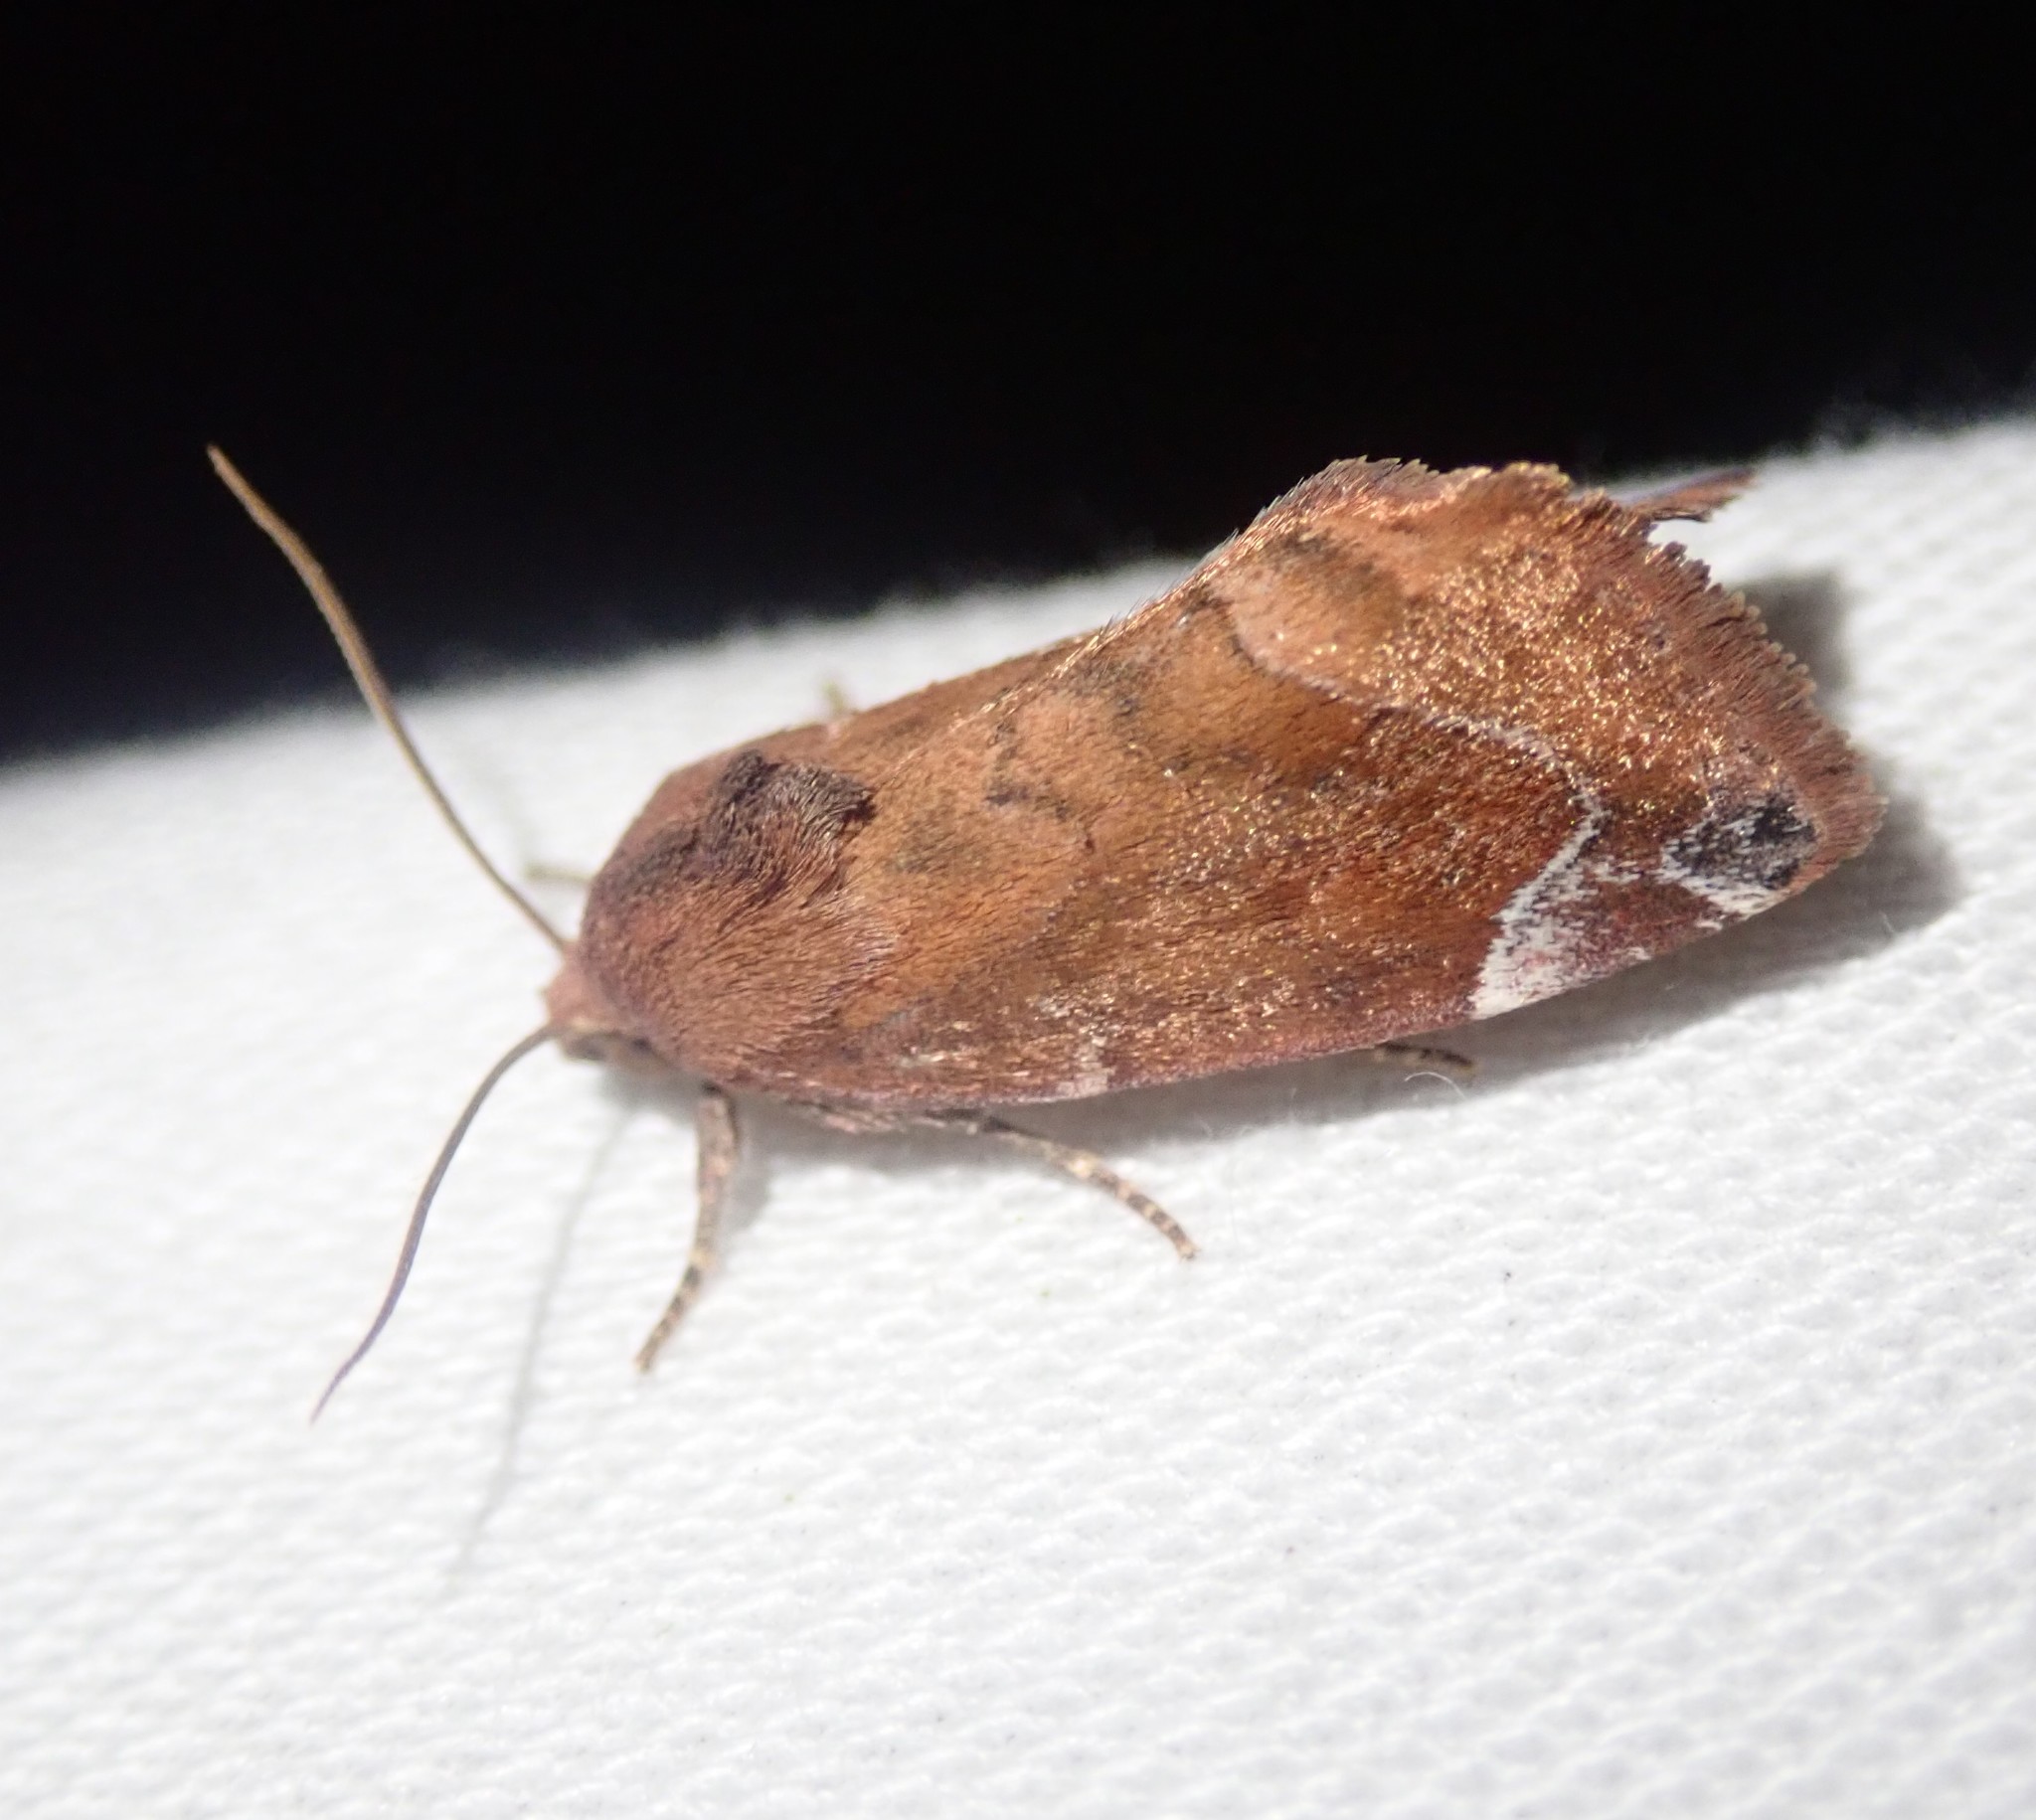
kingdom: Animalia
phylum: Arthropoda
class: Insecta
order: Lepidoptera
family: Noctuidae
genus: Cosmia
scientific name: Cosmia pyralina
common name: Lunar-spotted pinion
